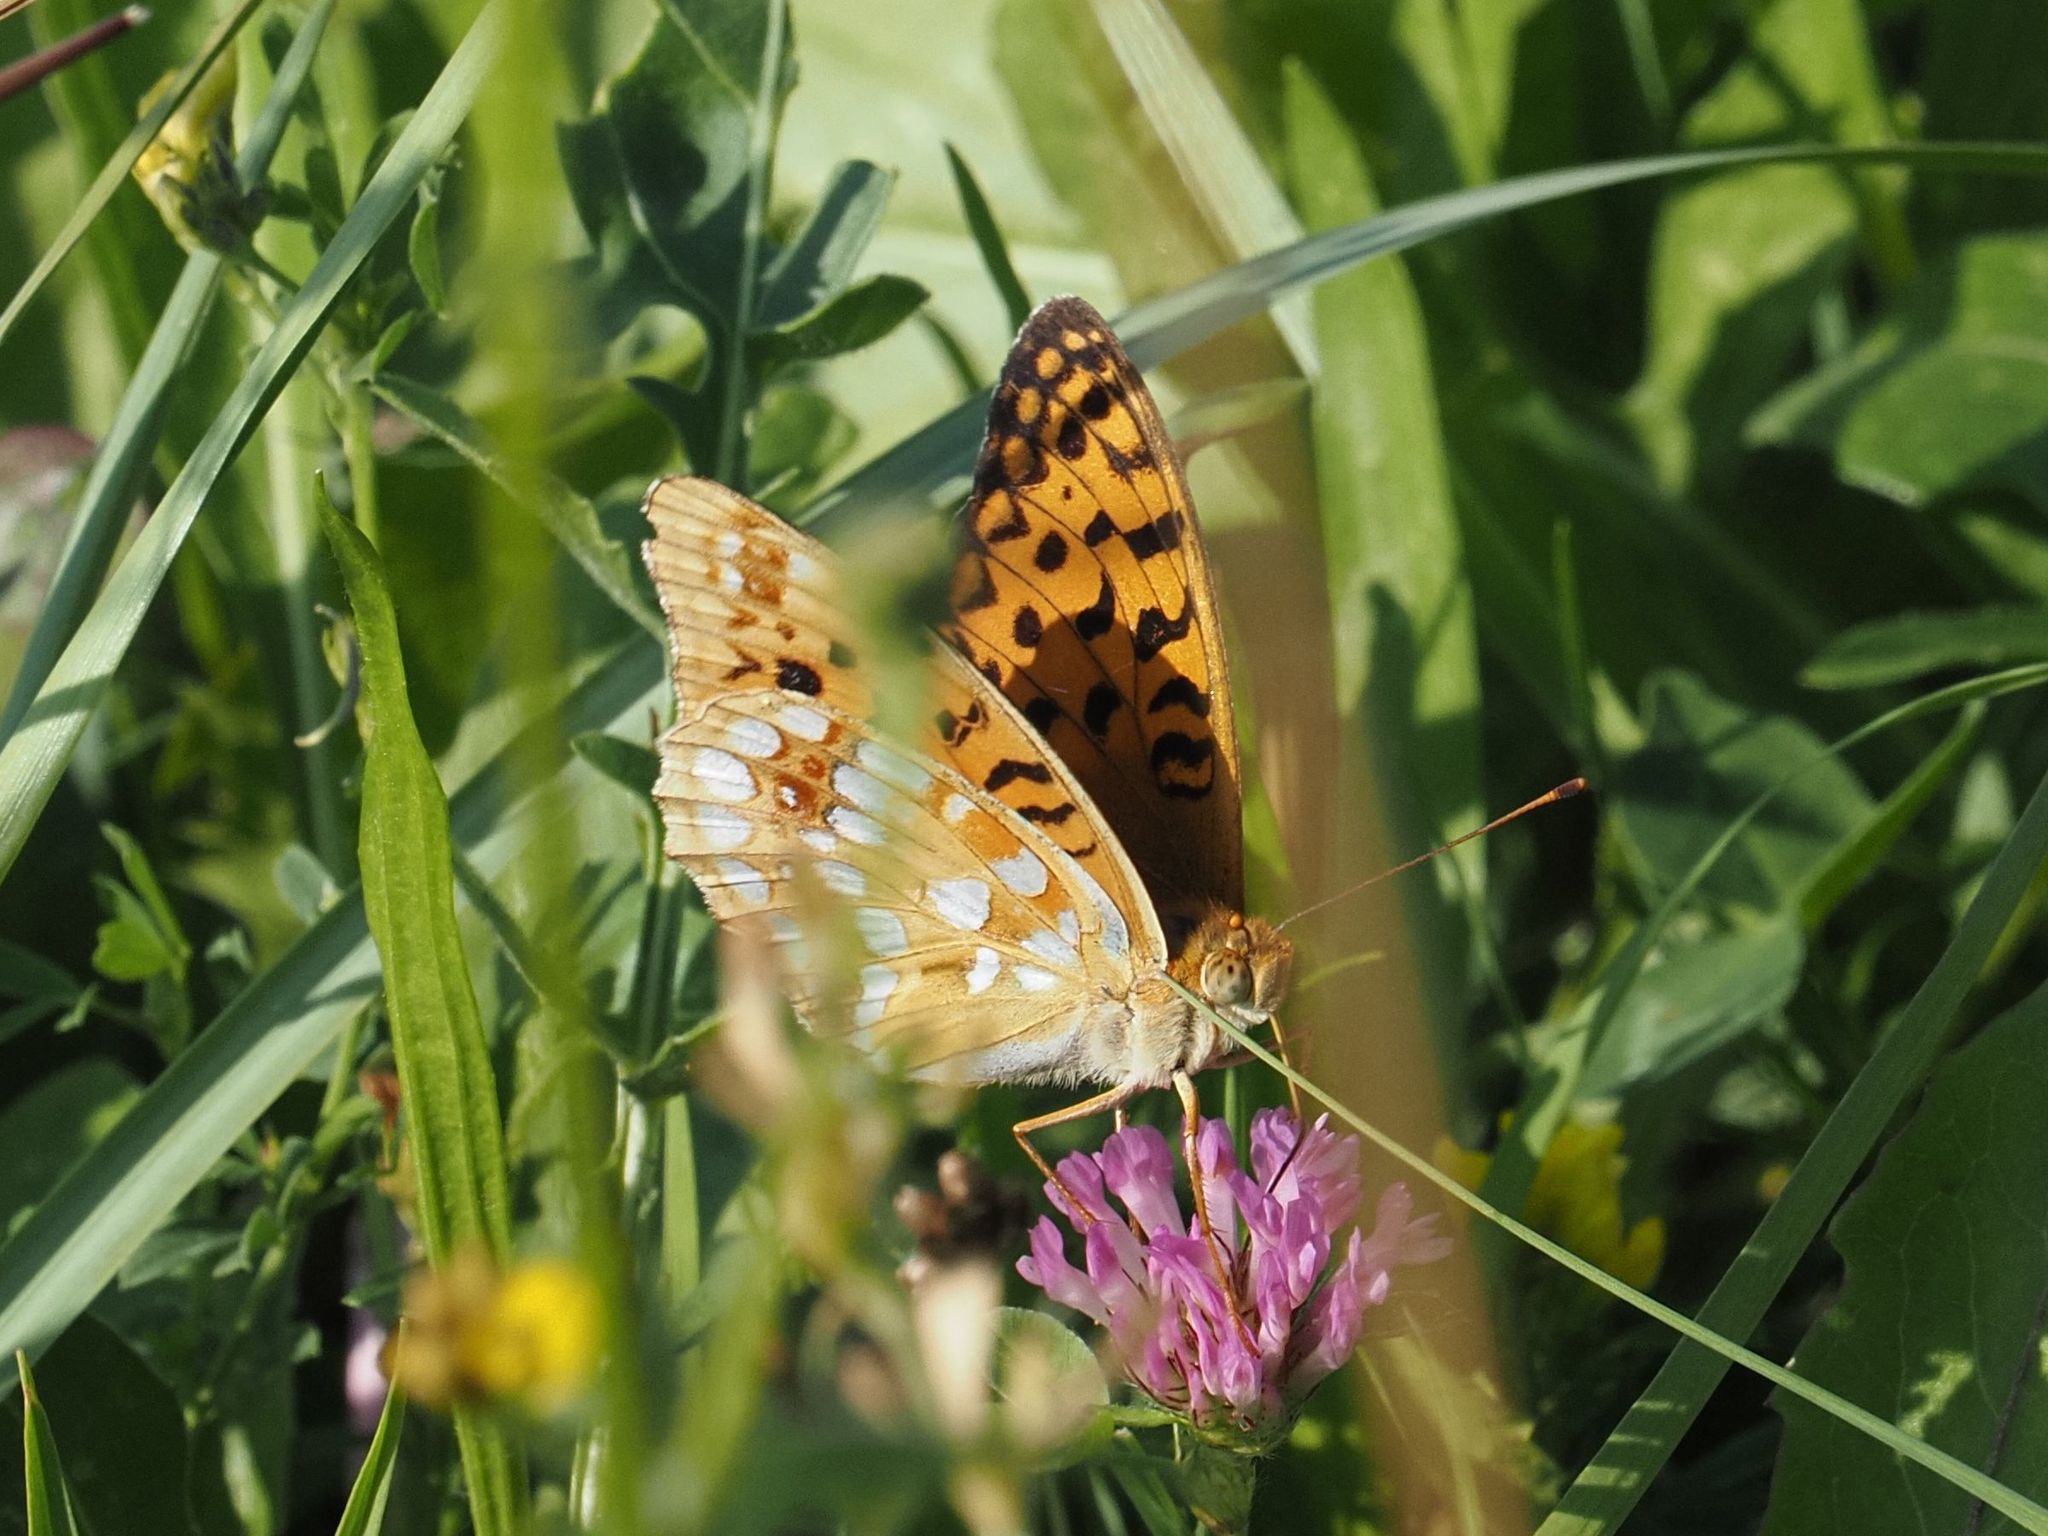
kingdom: Animalia
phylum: Arthropoda
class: Insecta
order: Lepidoptera
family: Nymphalidae
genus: Fabriciana
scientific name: Fabriciana adippe
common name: High brown fritillary
